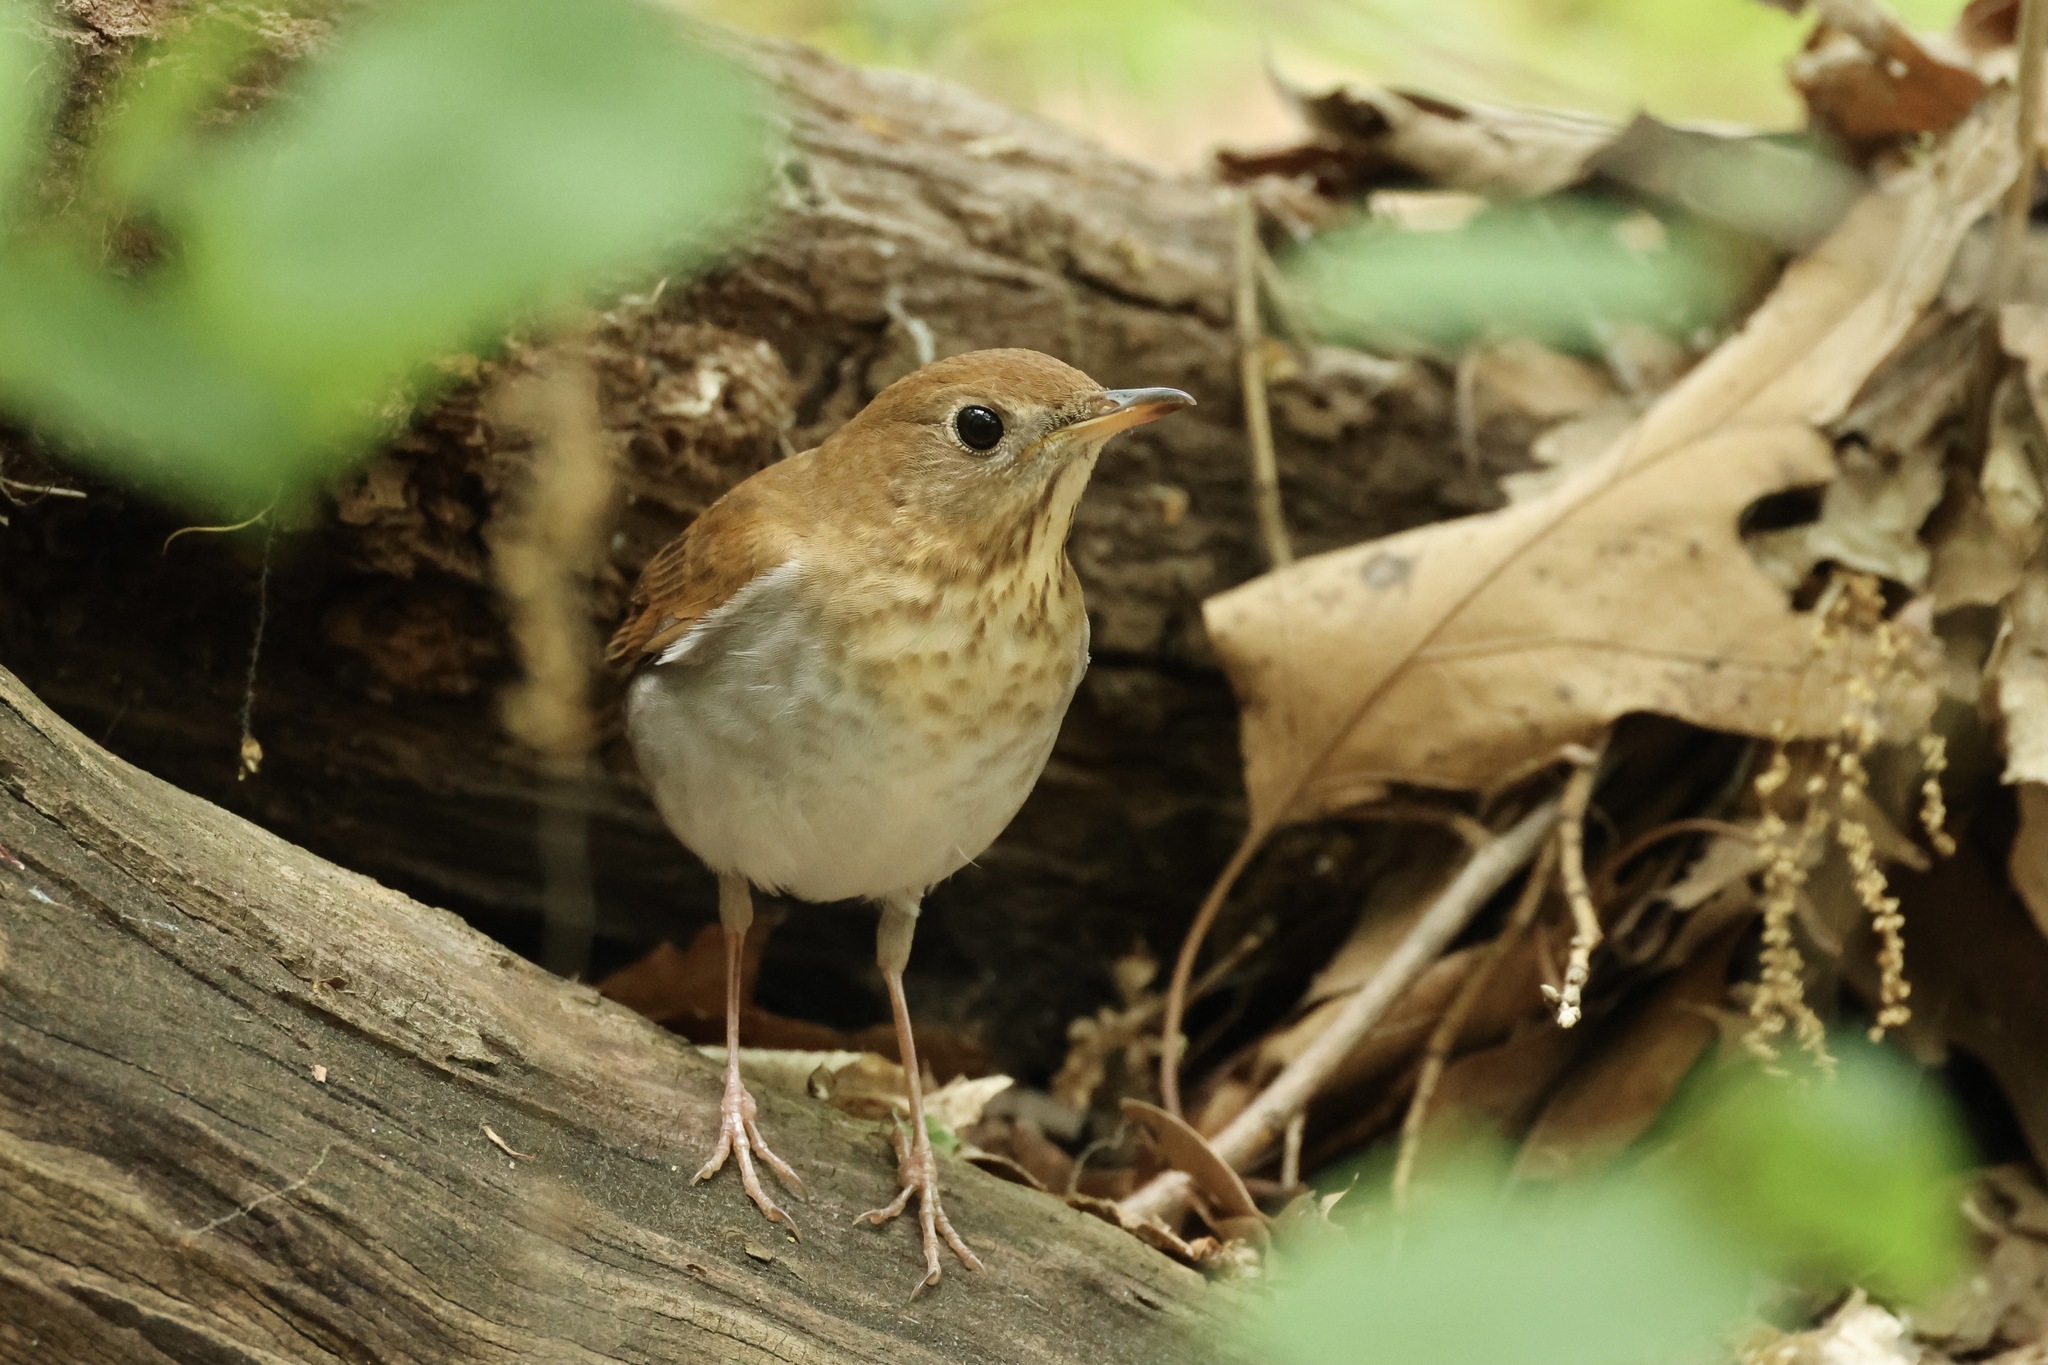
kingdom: Animalia
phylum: Chordata
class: Aves
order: Passeriformes
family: Turdidae
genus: Catharus
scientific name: Catharus fuscescens
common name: Veery
